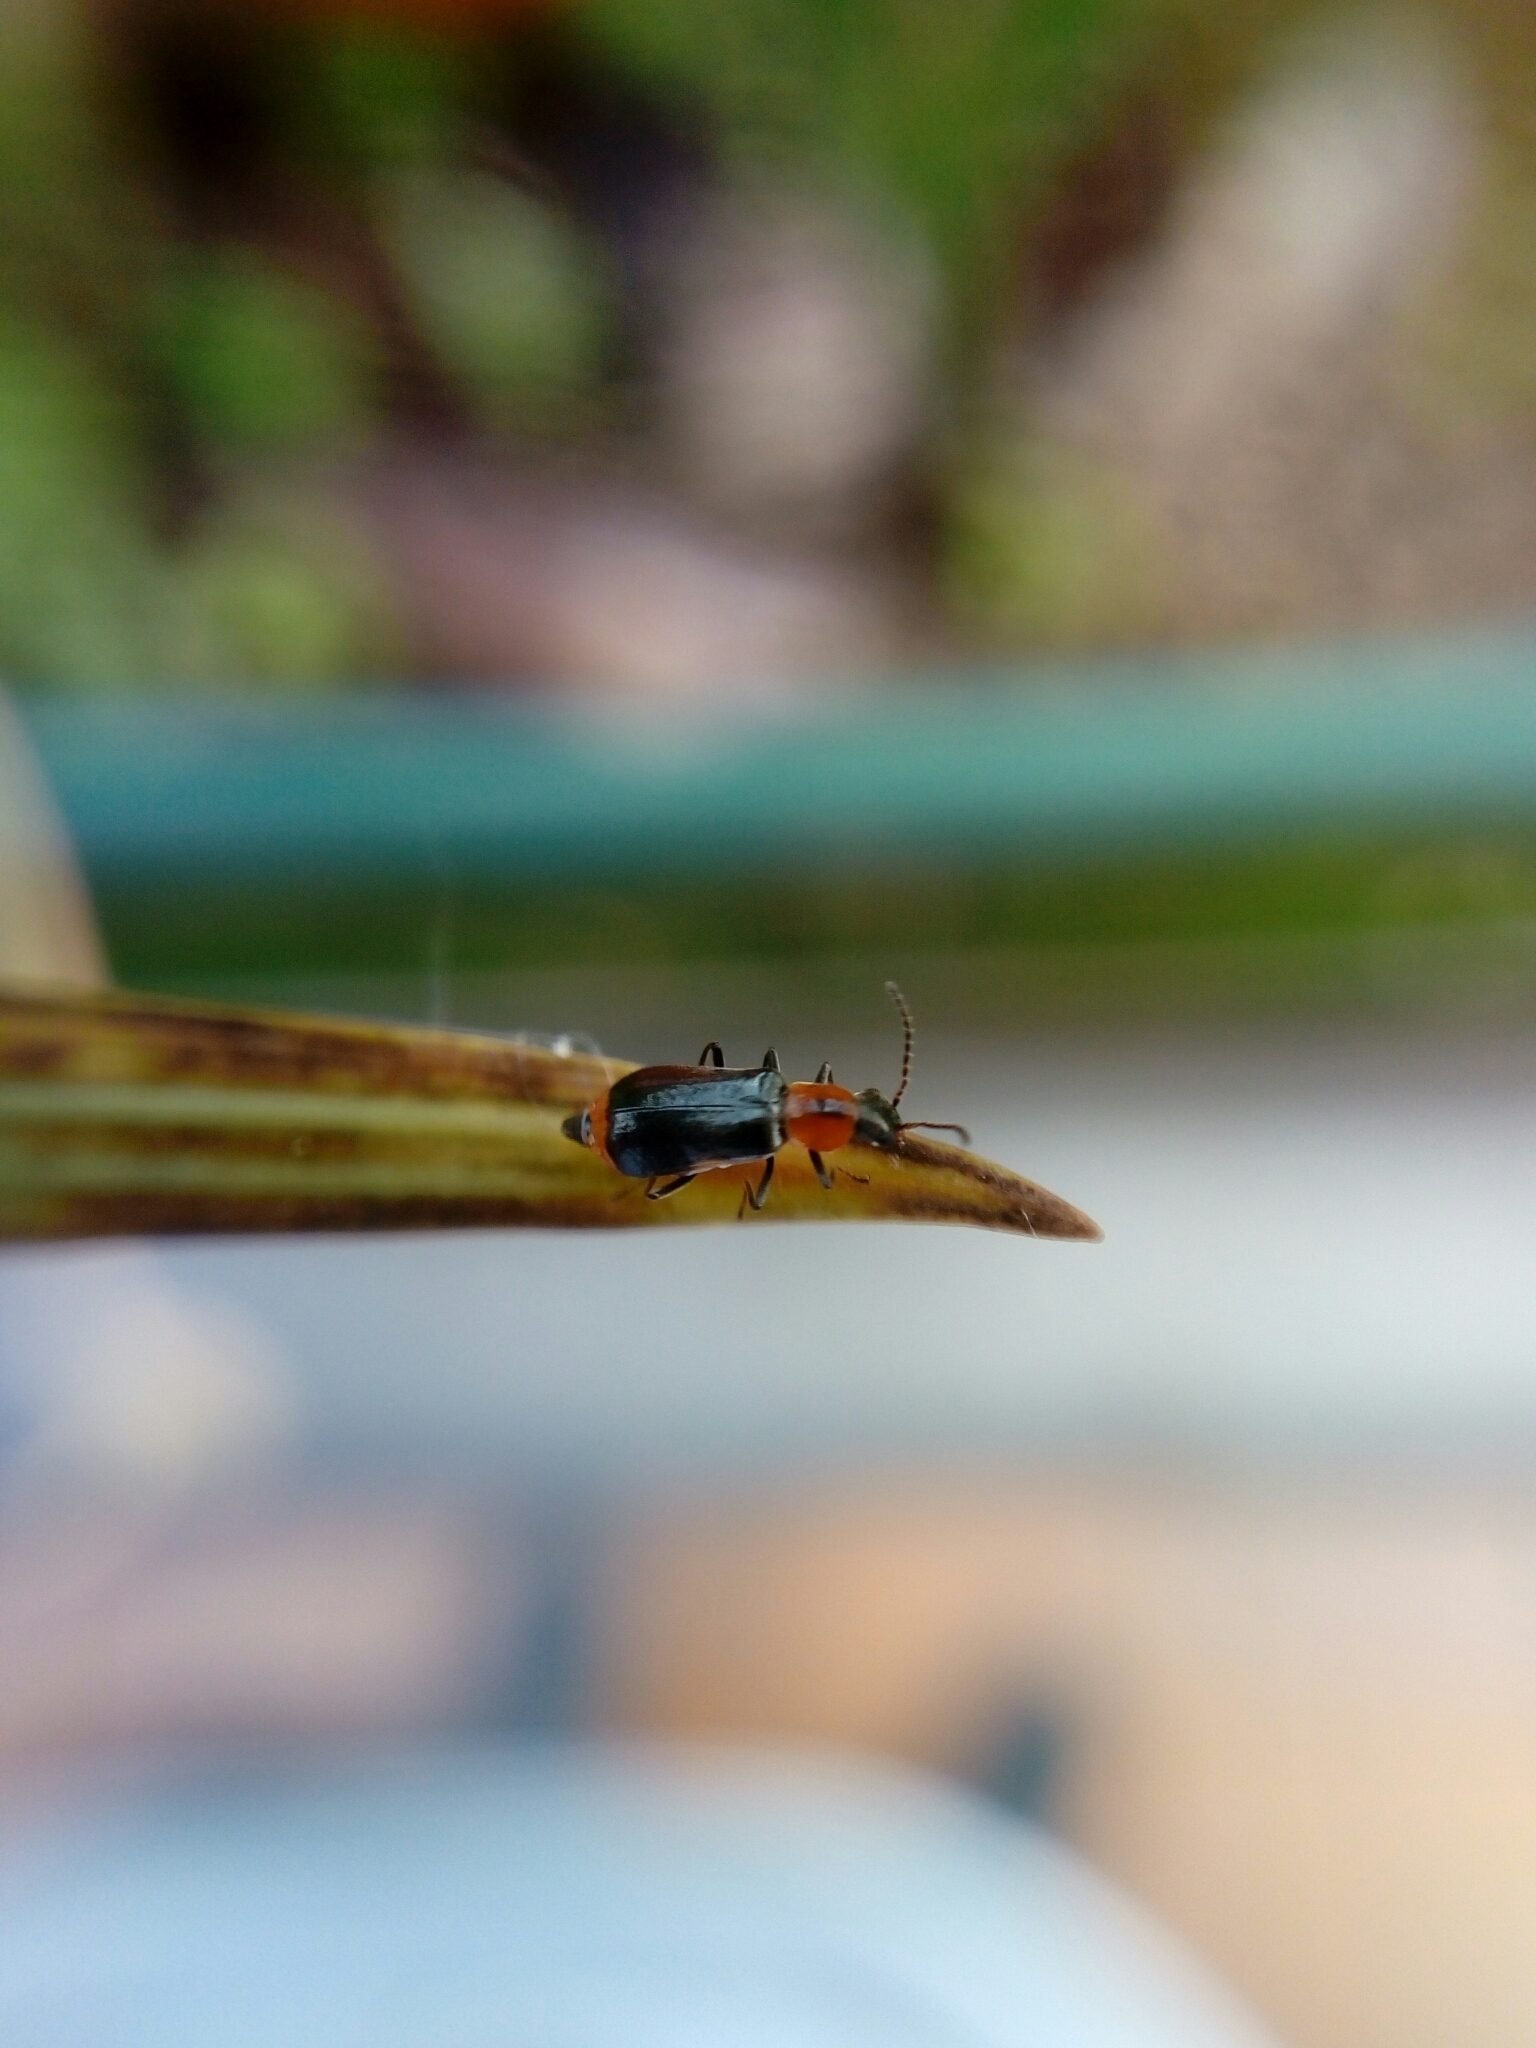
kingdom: Animalia
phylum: Arthropoda
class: Insecta
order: Coleoptera
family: Malachiidae
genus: Attalus
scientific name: Attalus minimus
